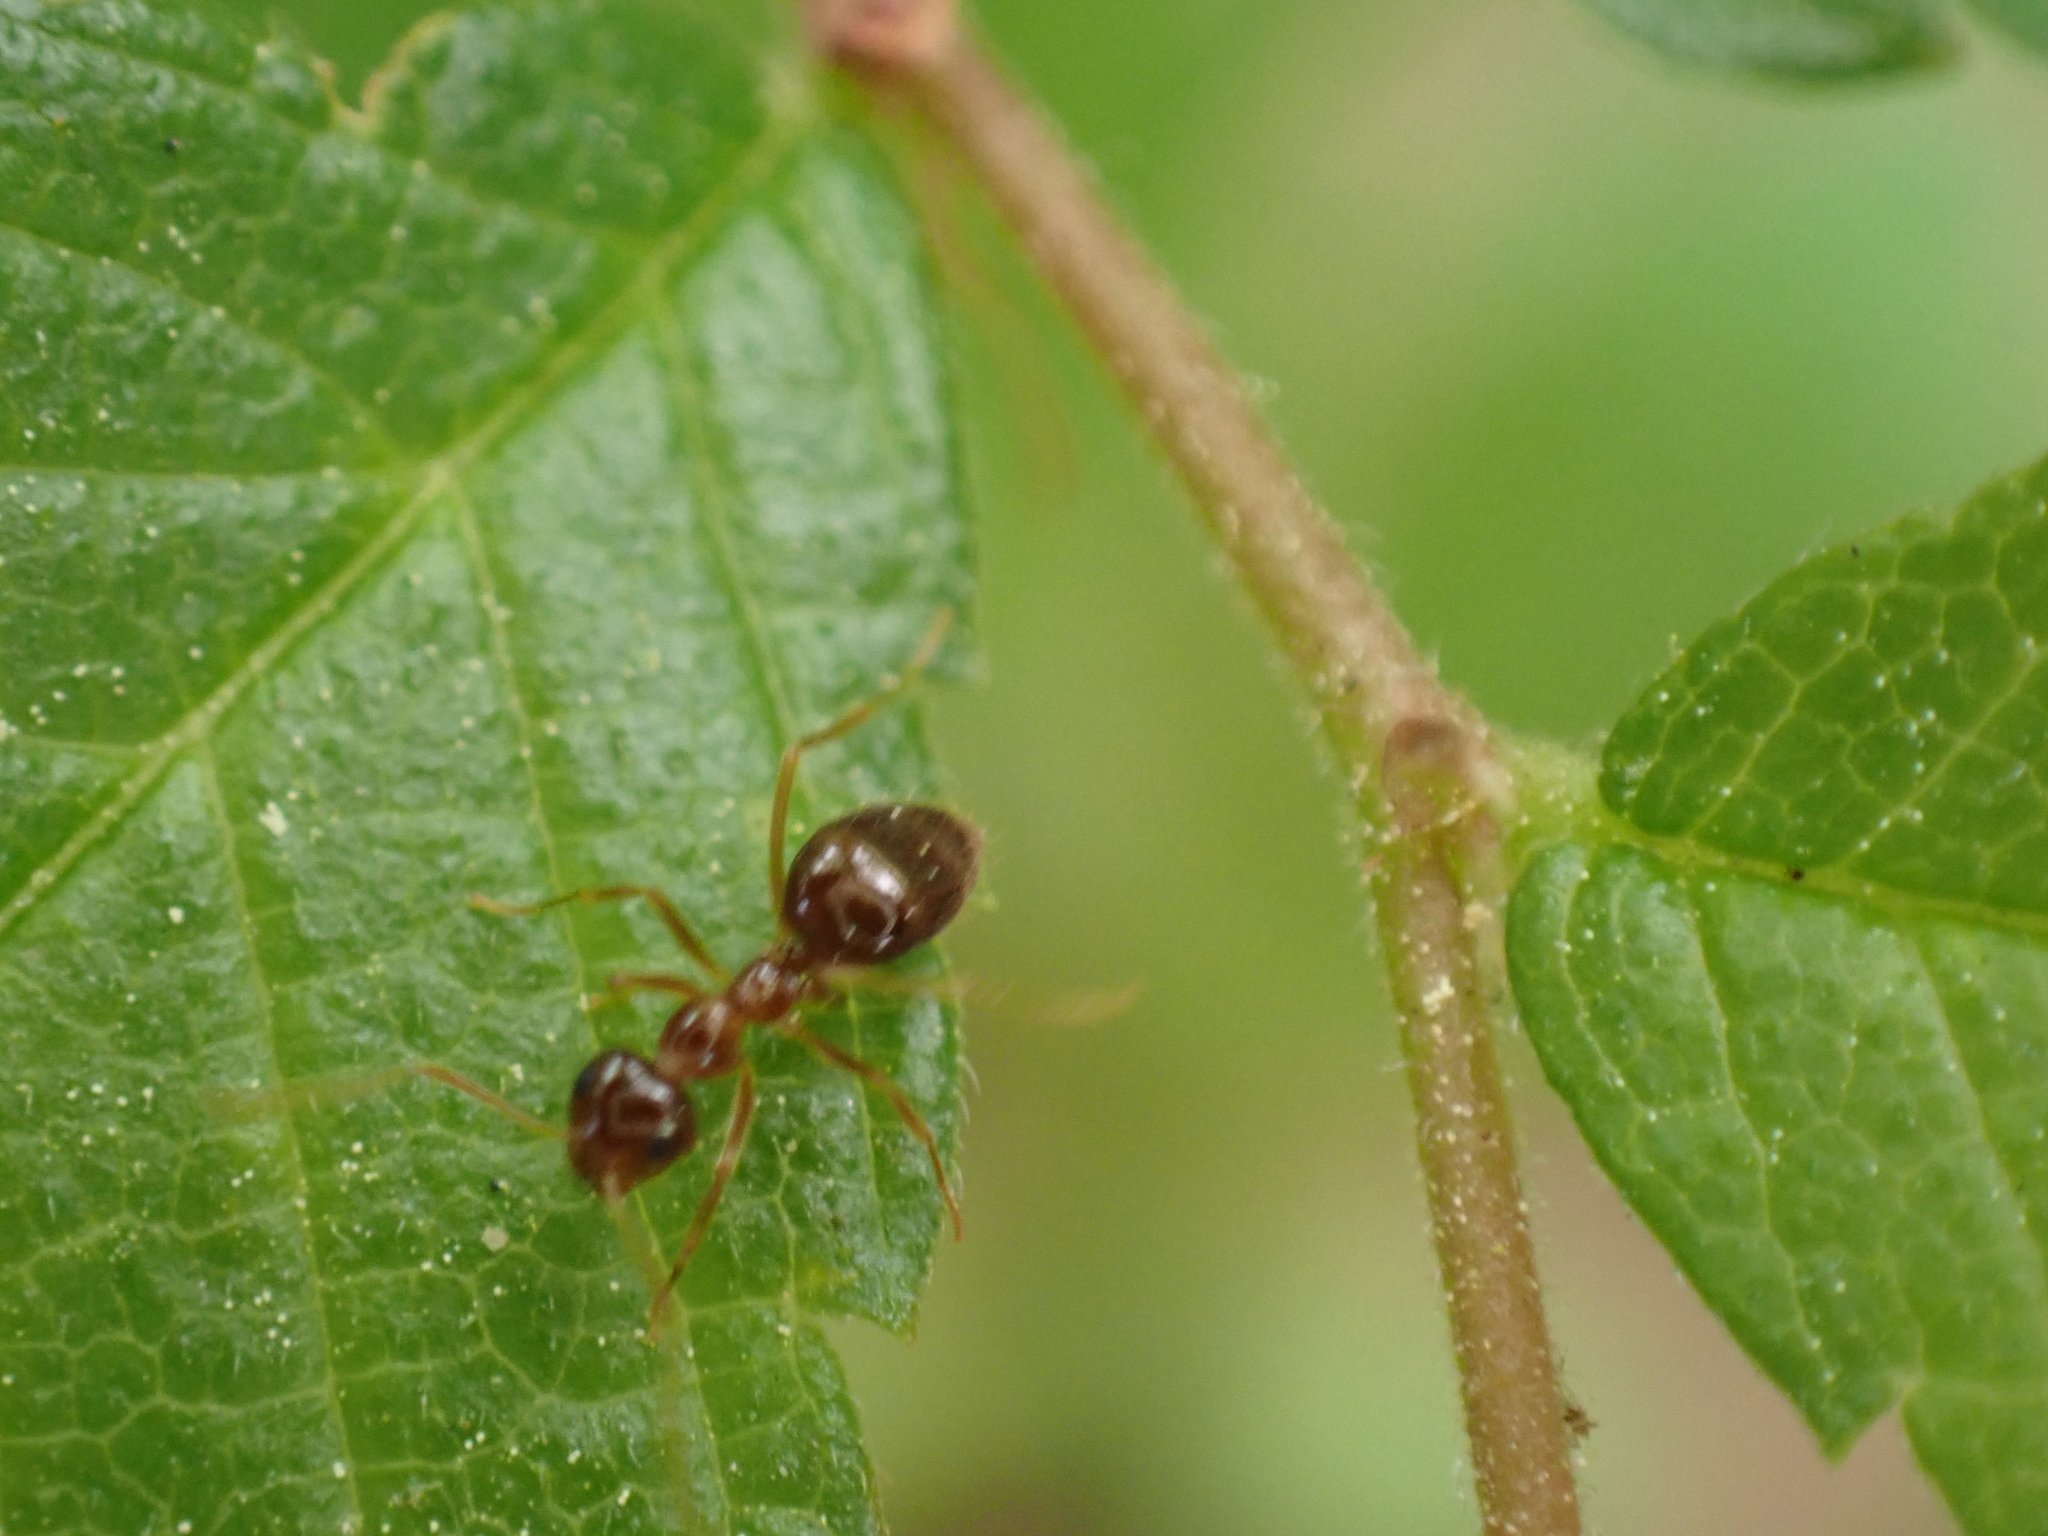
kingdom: Animalia
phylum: Arthropoda
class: Insecta
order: Hymenoptera
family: Formicidae
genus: Prenolepis
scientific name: Prenolepis imparis
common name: Small honey ant
